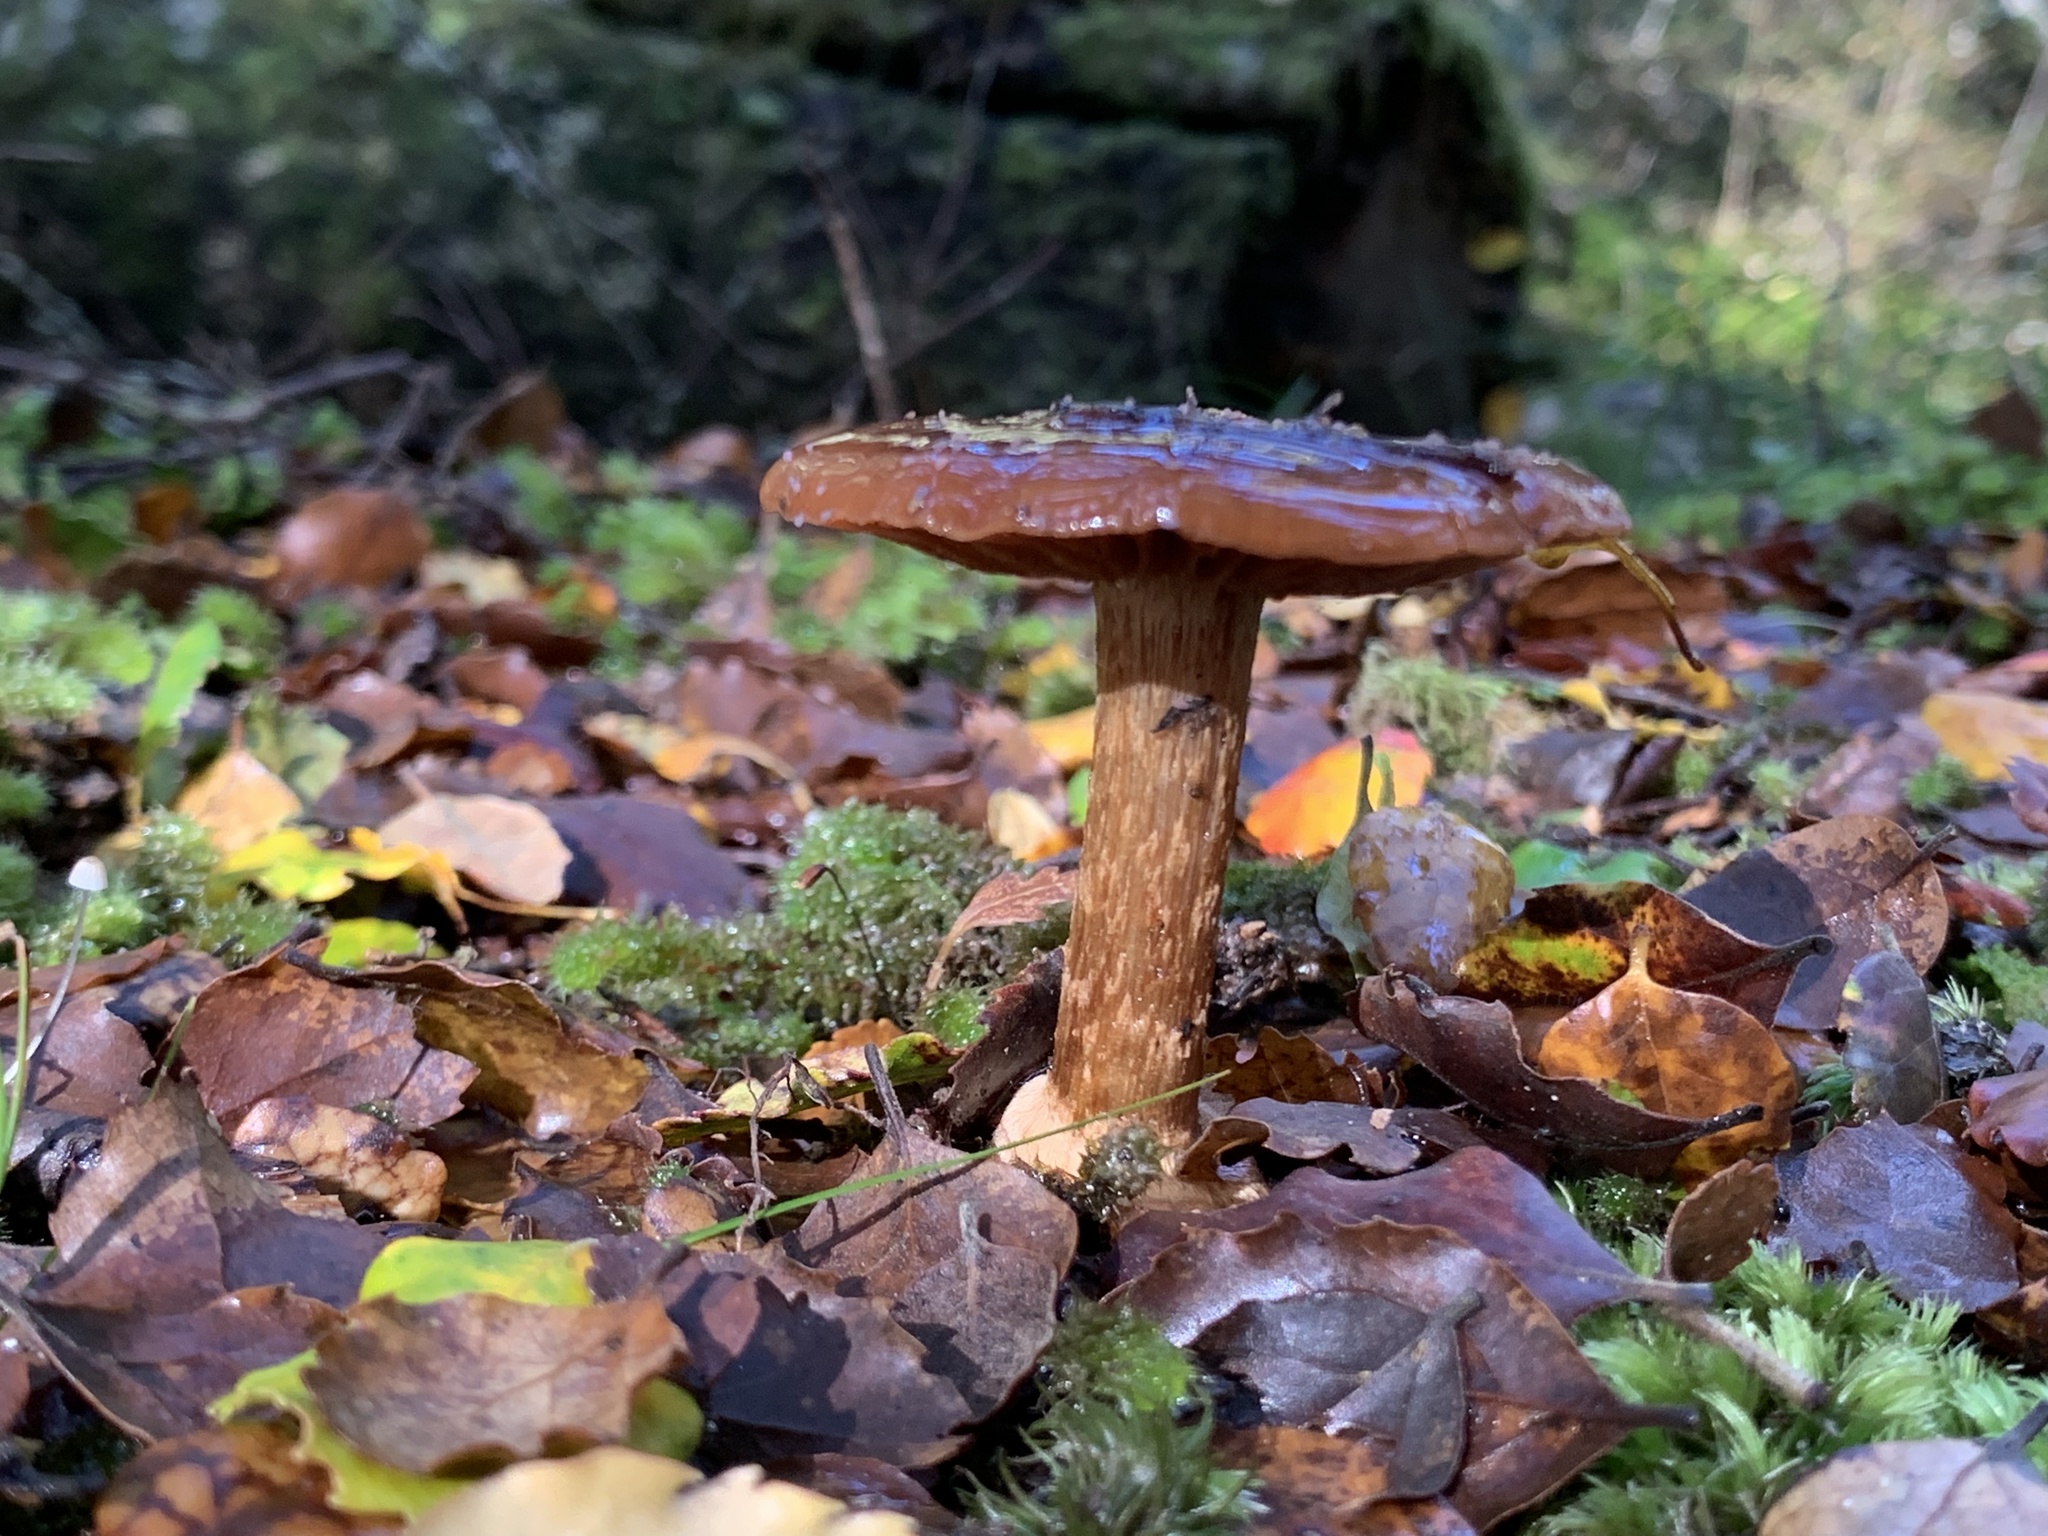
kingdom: Fungi
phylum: Basidiomycota
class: Agaricomycetes
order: Agaricales
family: Cortinariaceae
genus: Cortinarius
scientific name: Cortinarius cesarioanus
